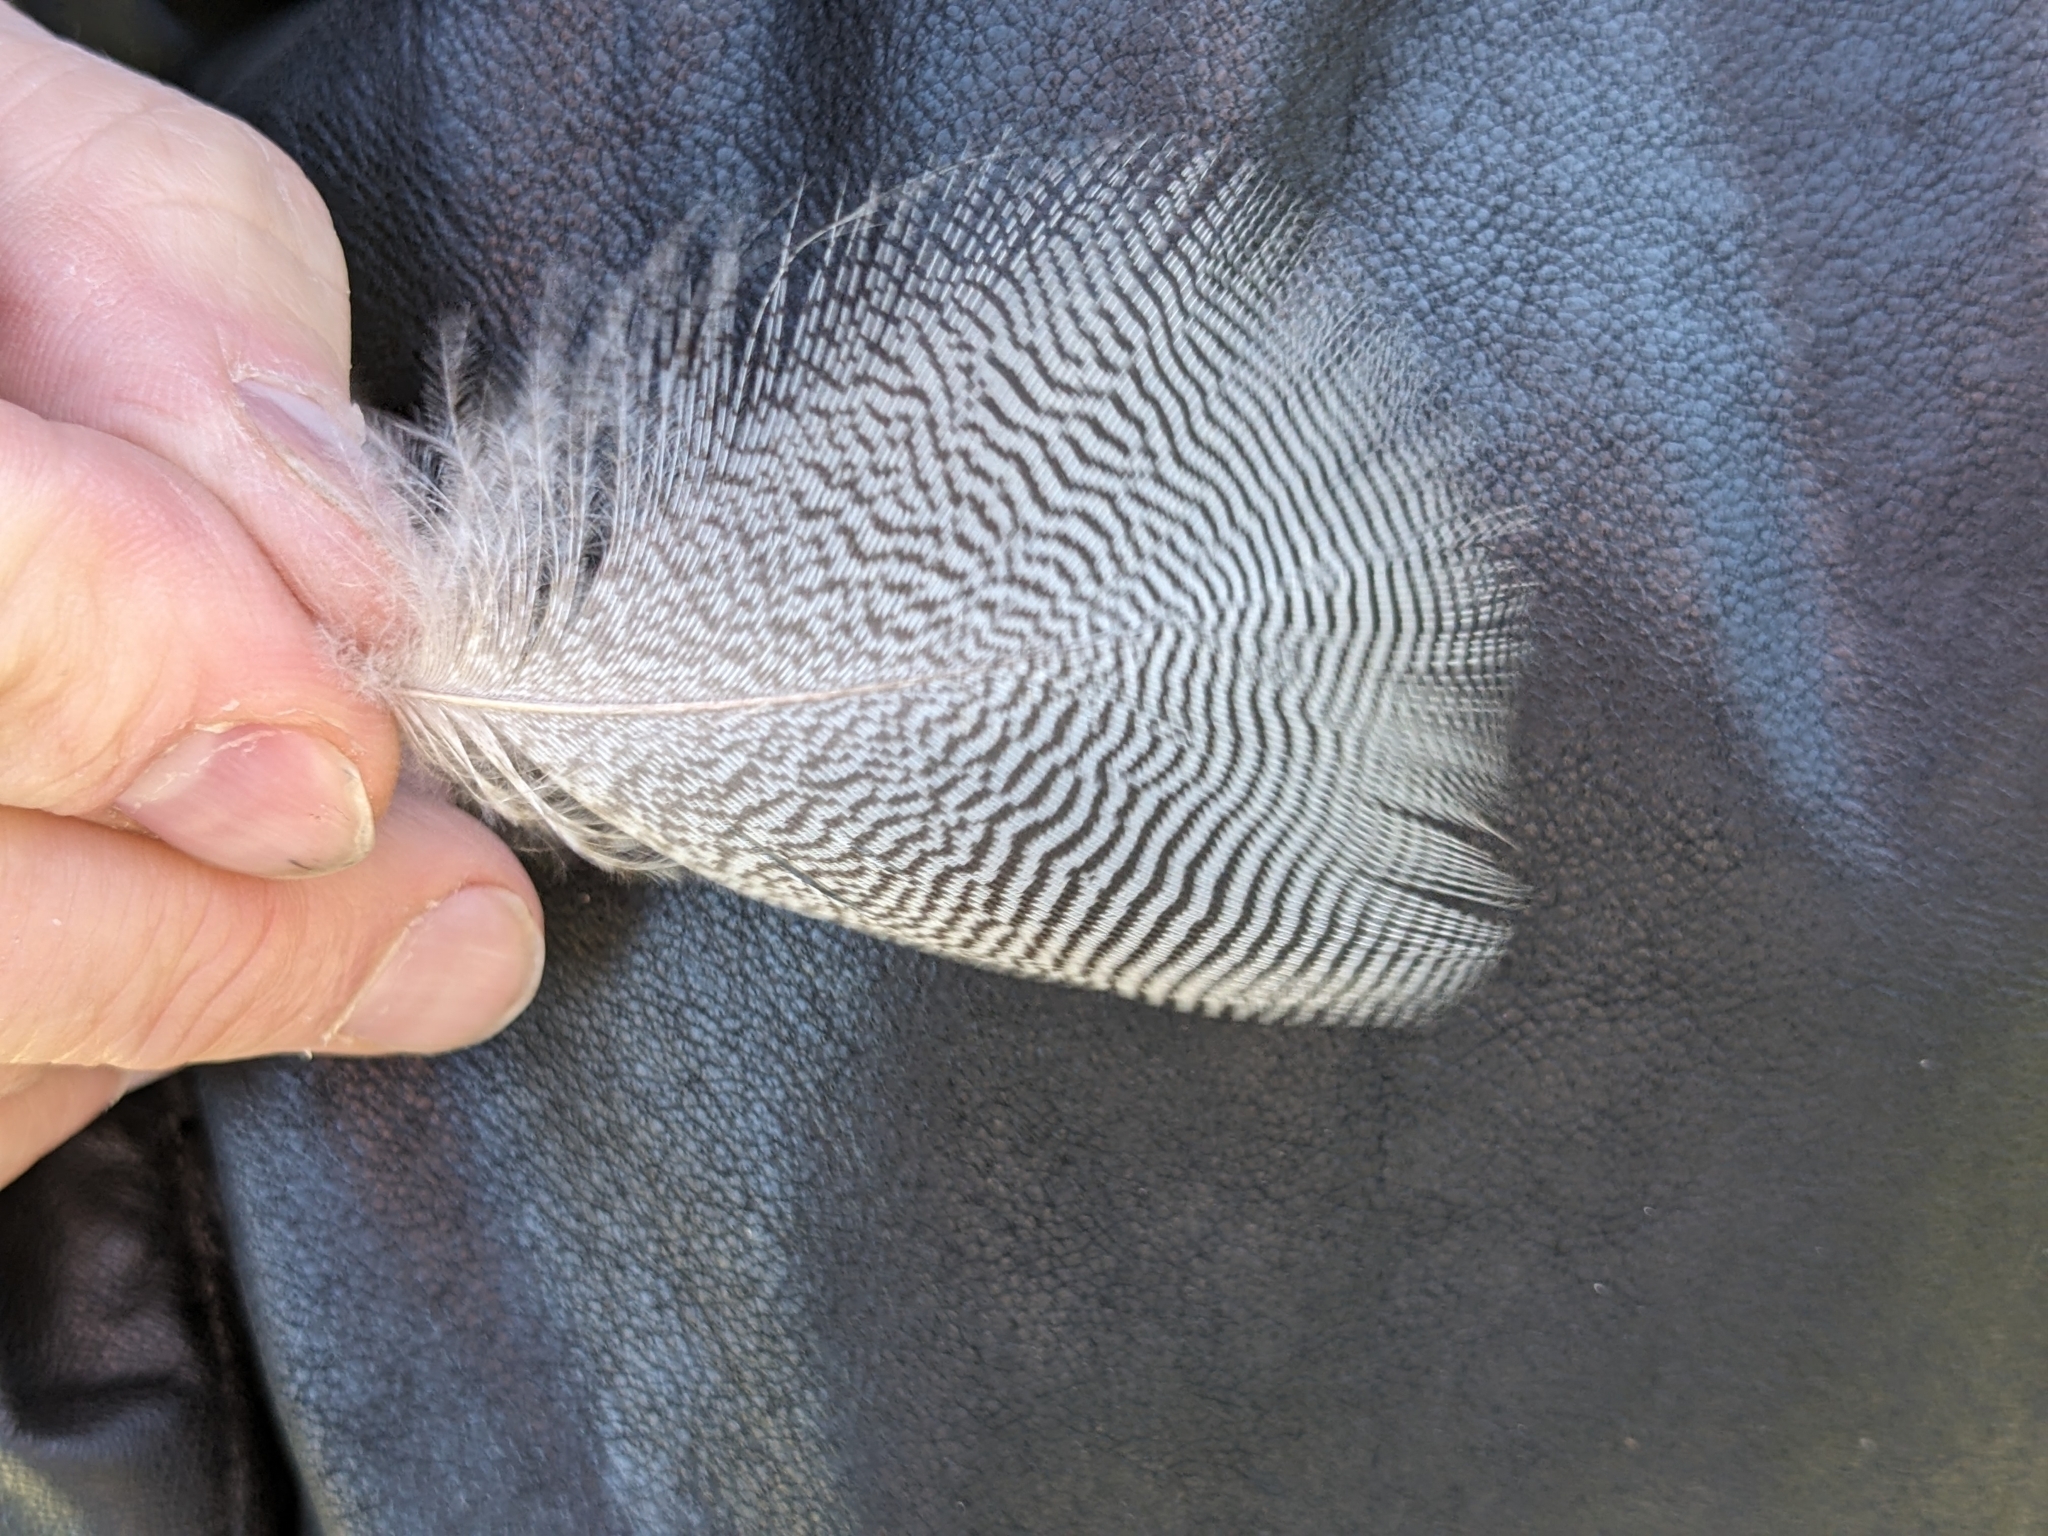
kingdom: Animalia
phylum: Chordata
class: Aves
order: Anseriformes
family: Anatidae
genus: Chenonetta
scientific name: Chenonetta jubata
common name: Maned duck
